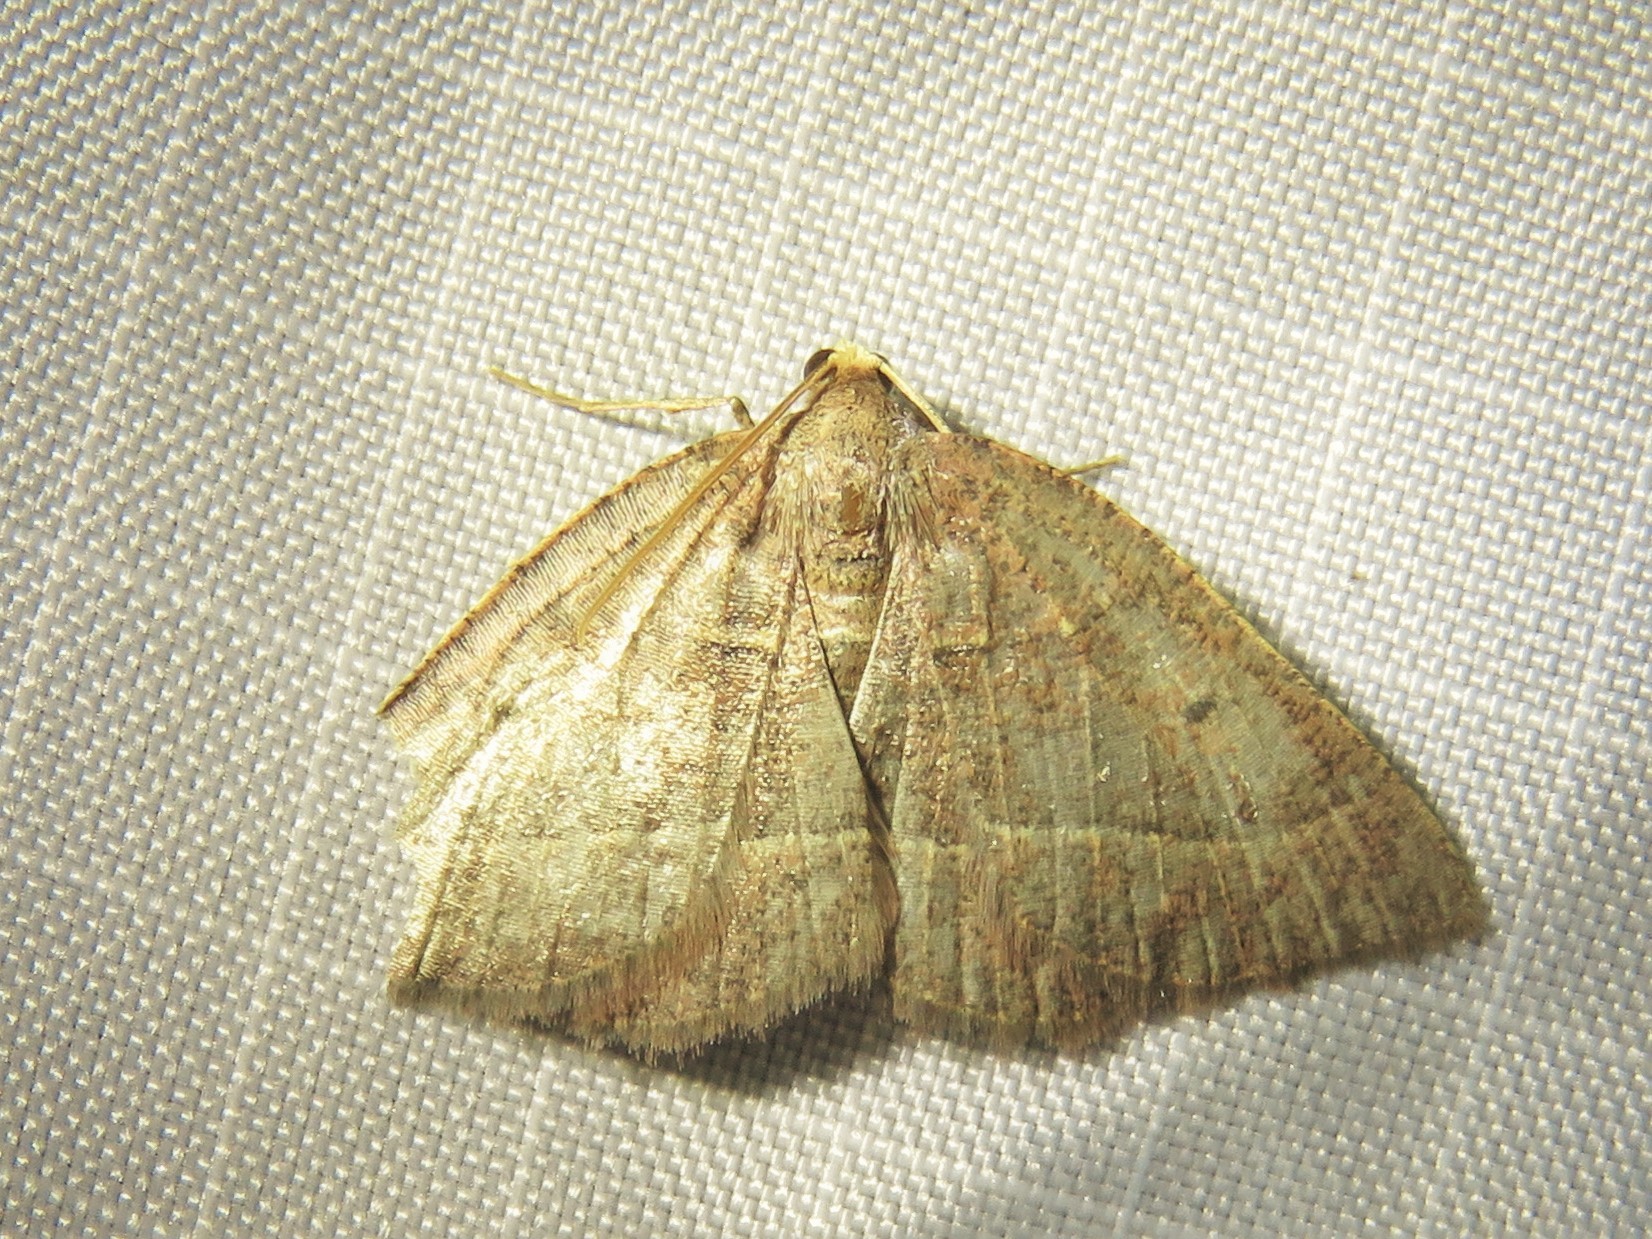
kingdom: Animalia
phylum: Arthropoda
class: Insecta
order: Lepidoptera
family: Geometridae
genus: Episemasia
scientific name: Episemasia cervinaria
